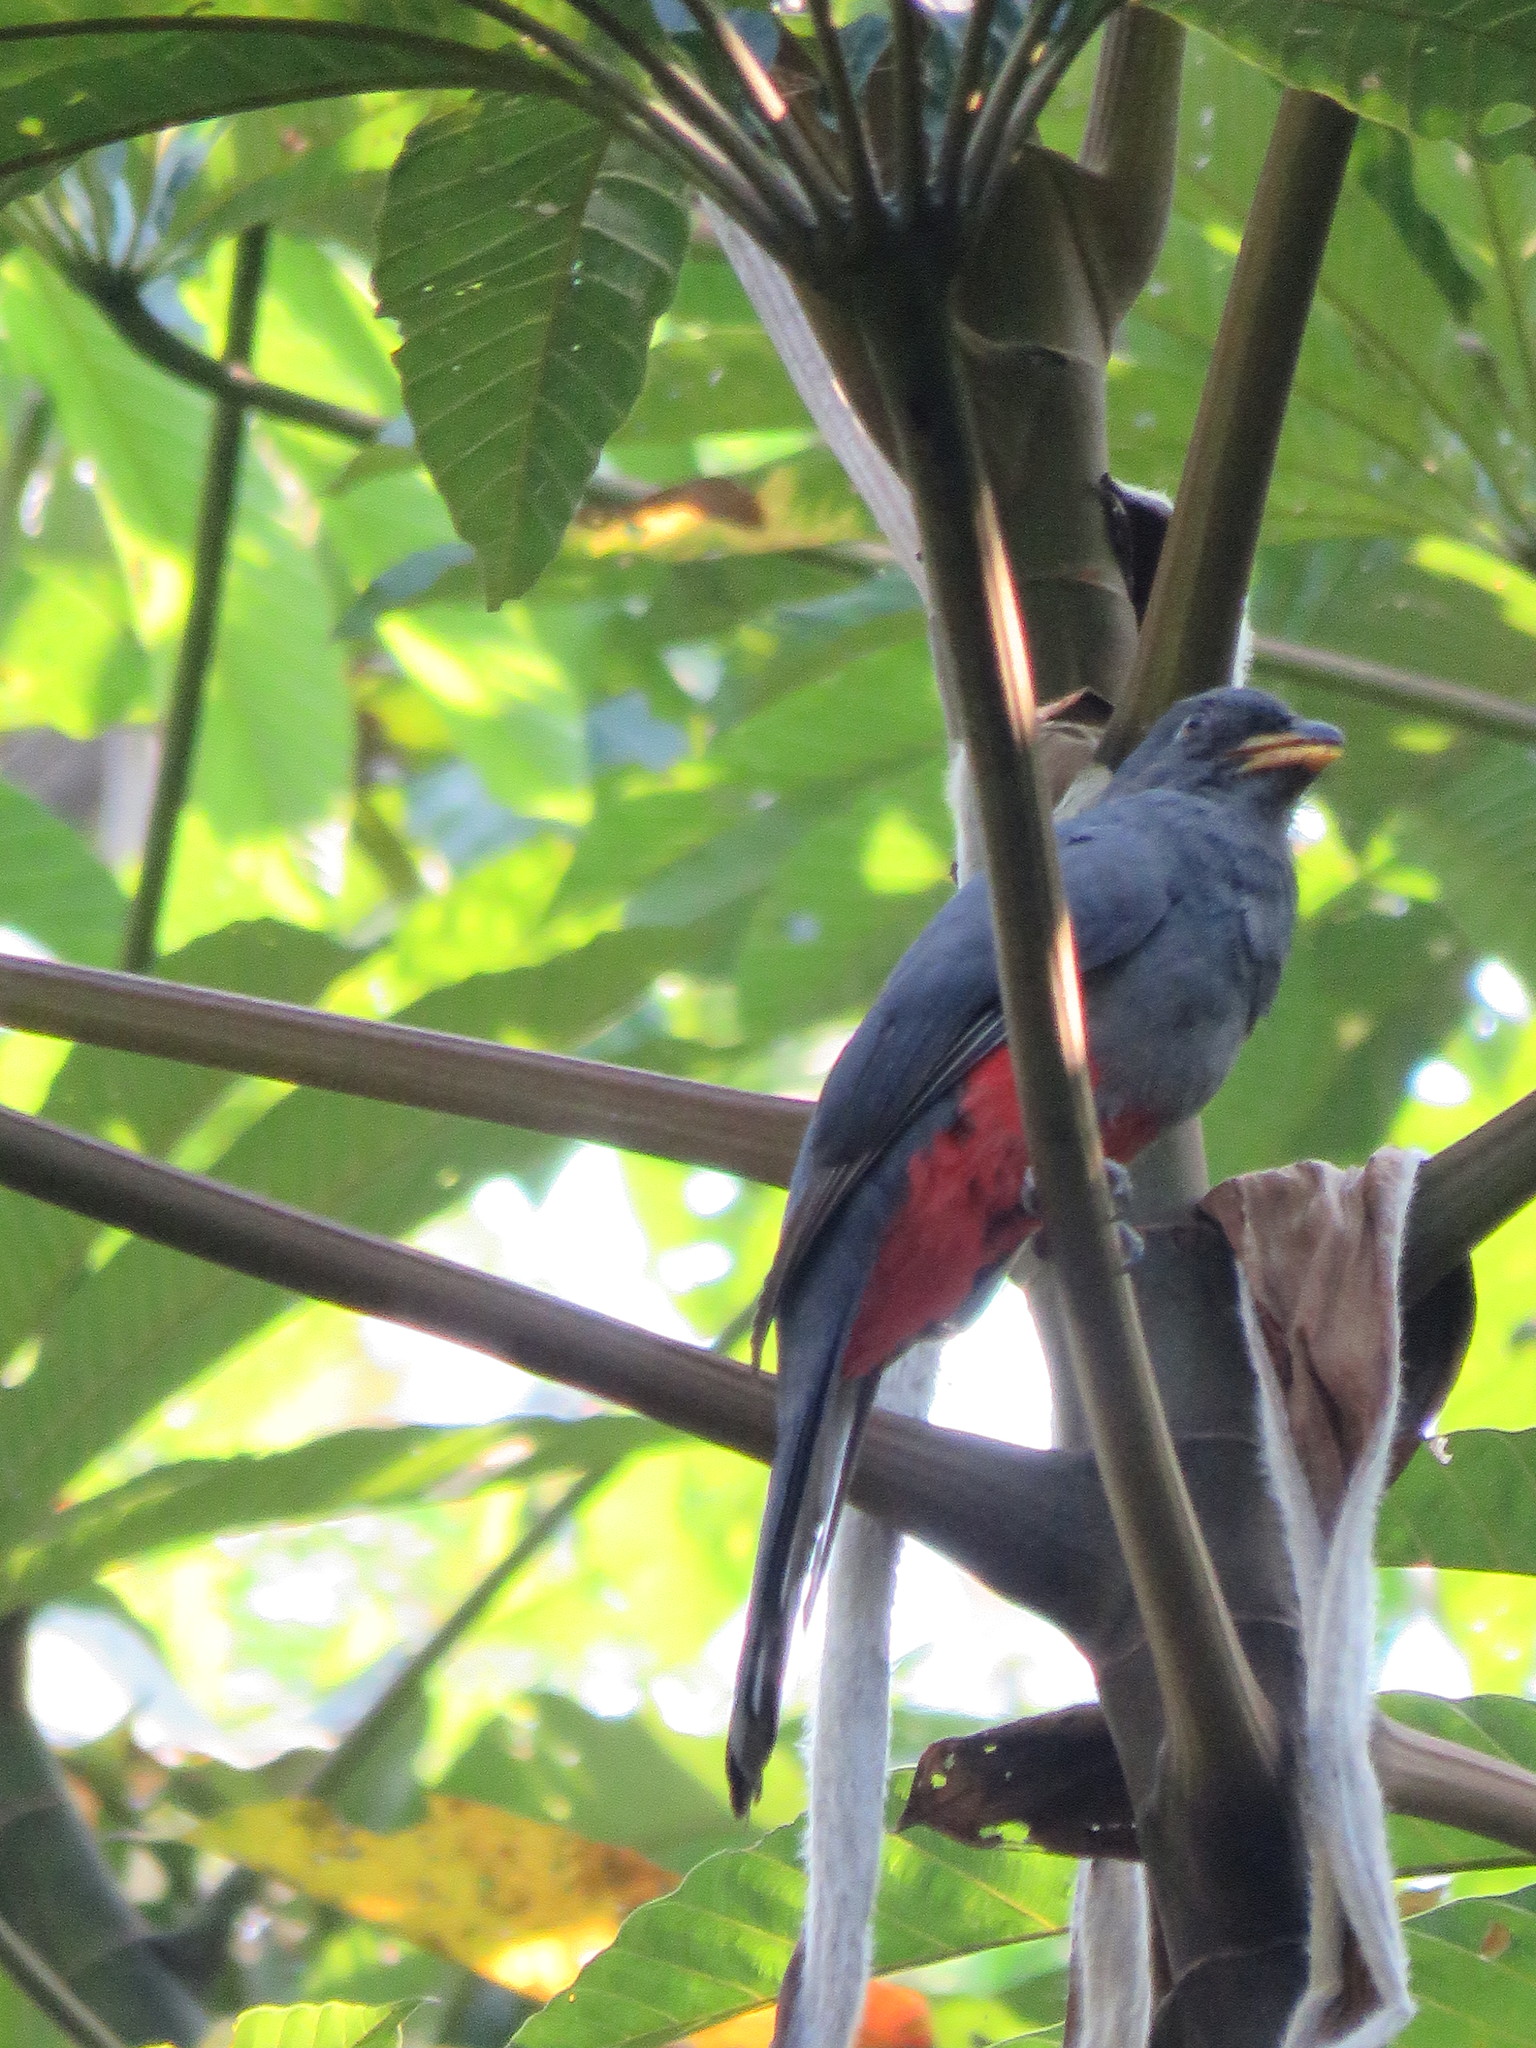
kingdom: Animalia
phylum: Chordata
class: Aves
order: Trogoniformes
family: Trogonidae
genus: Trogon
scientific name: Trogon melanurus
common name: Black-tailed trogon
